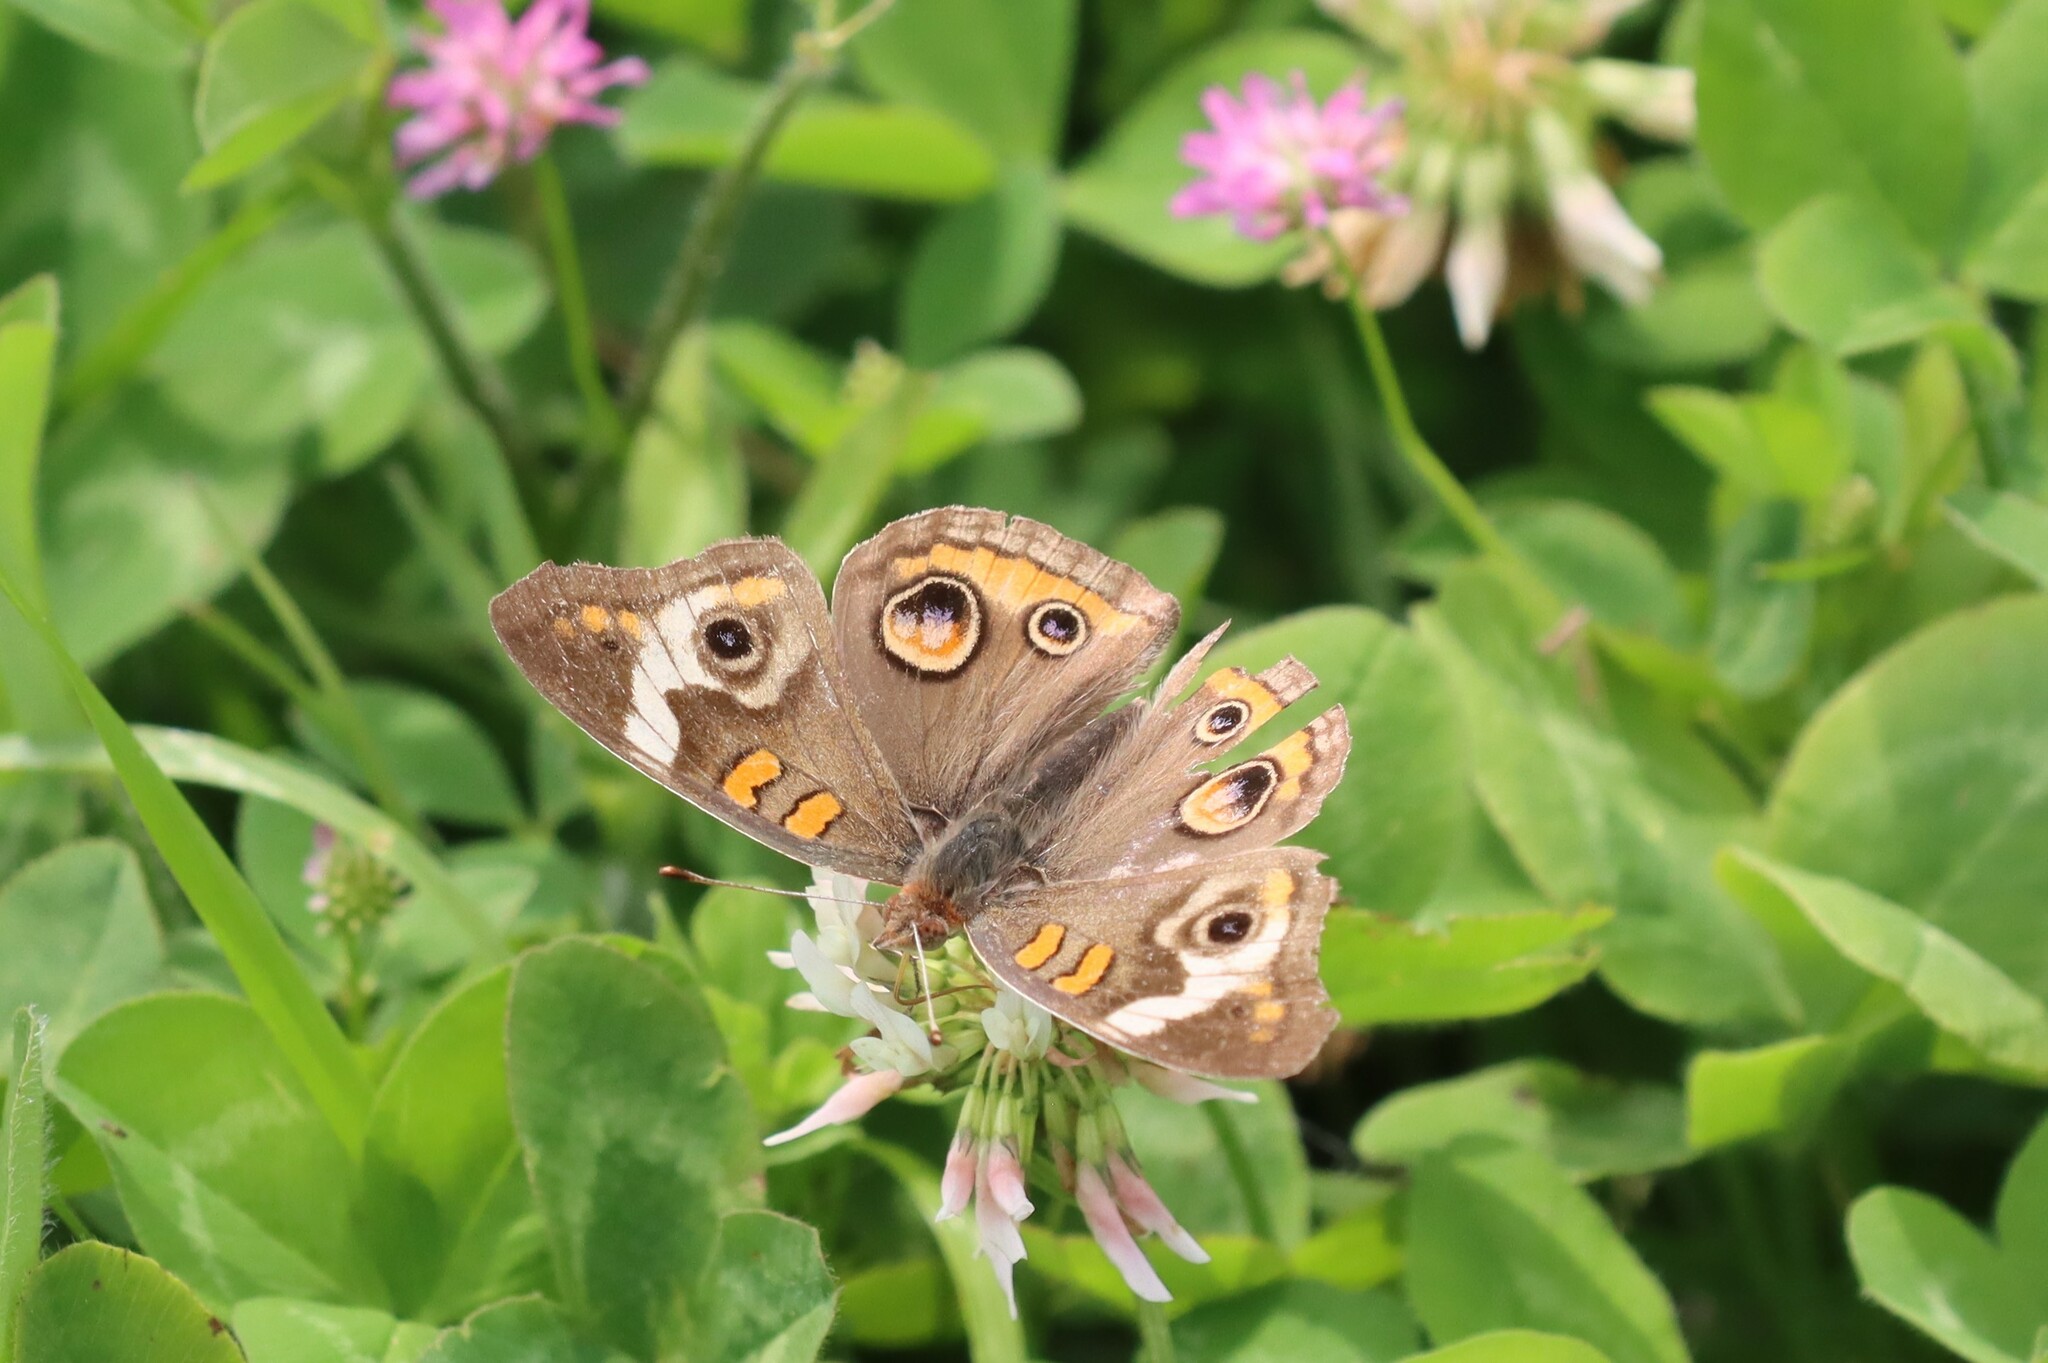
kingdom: Animalia
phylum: Arthropoda
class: Insecta
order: Lepidoptera
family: Nymphalidae
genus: Junonia
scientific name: Junonia coenia
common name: Common buckeye
